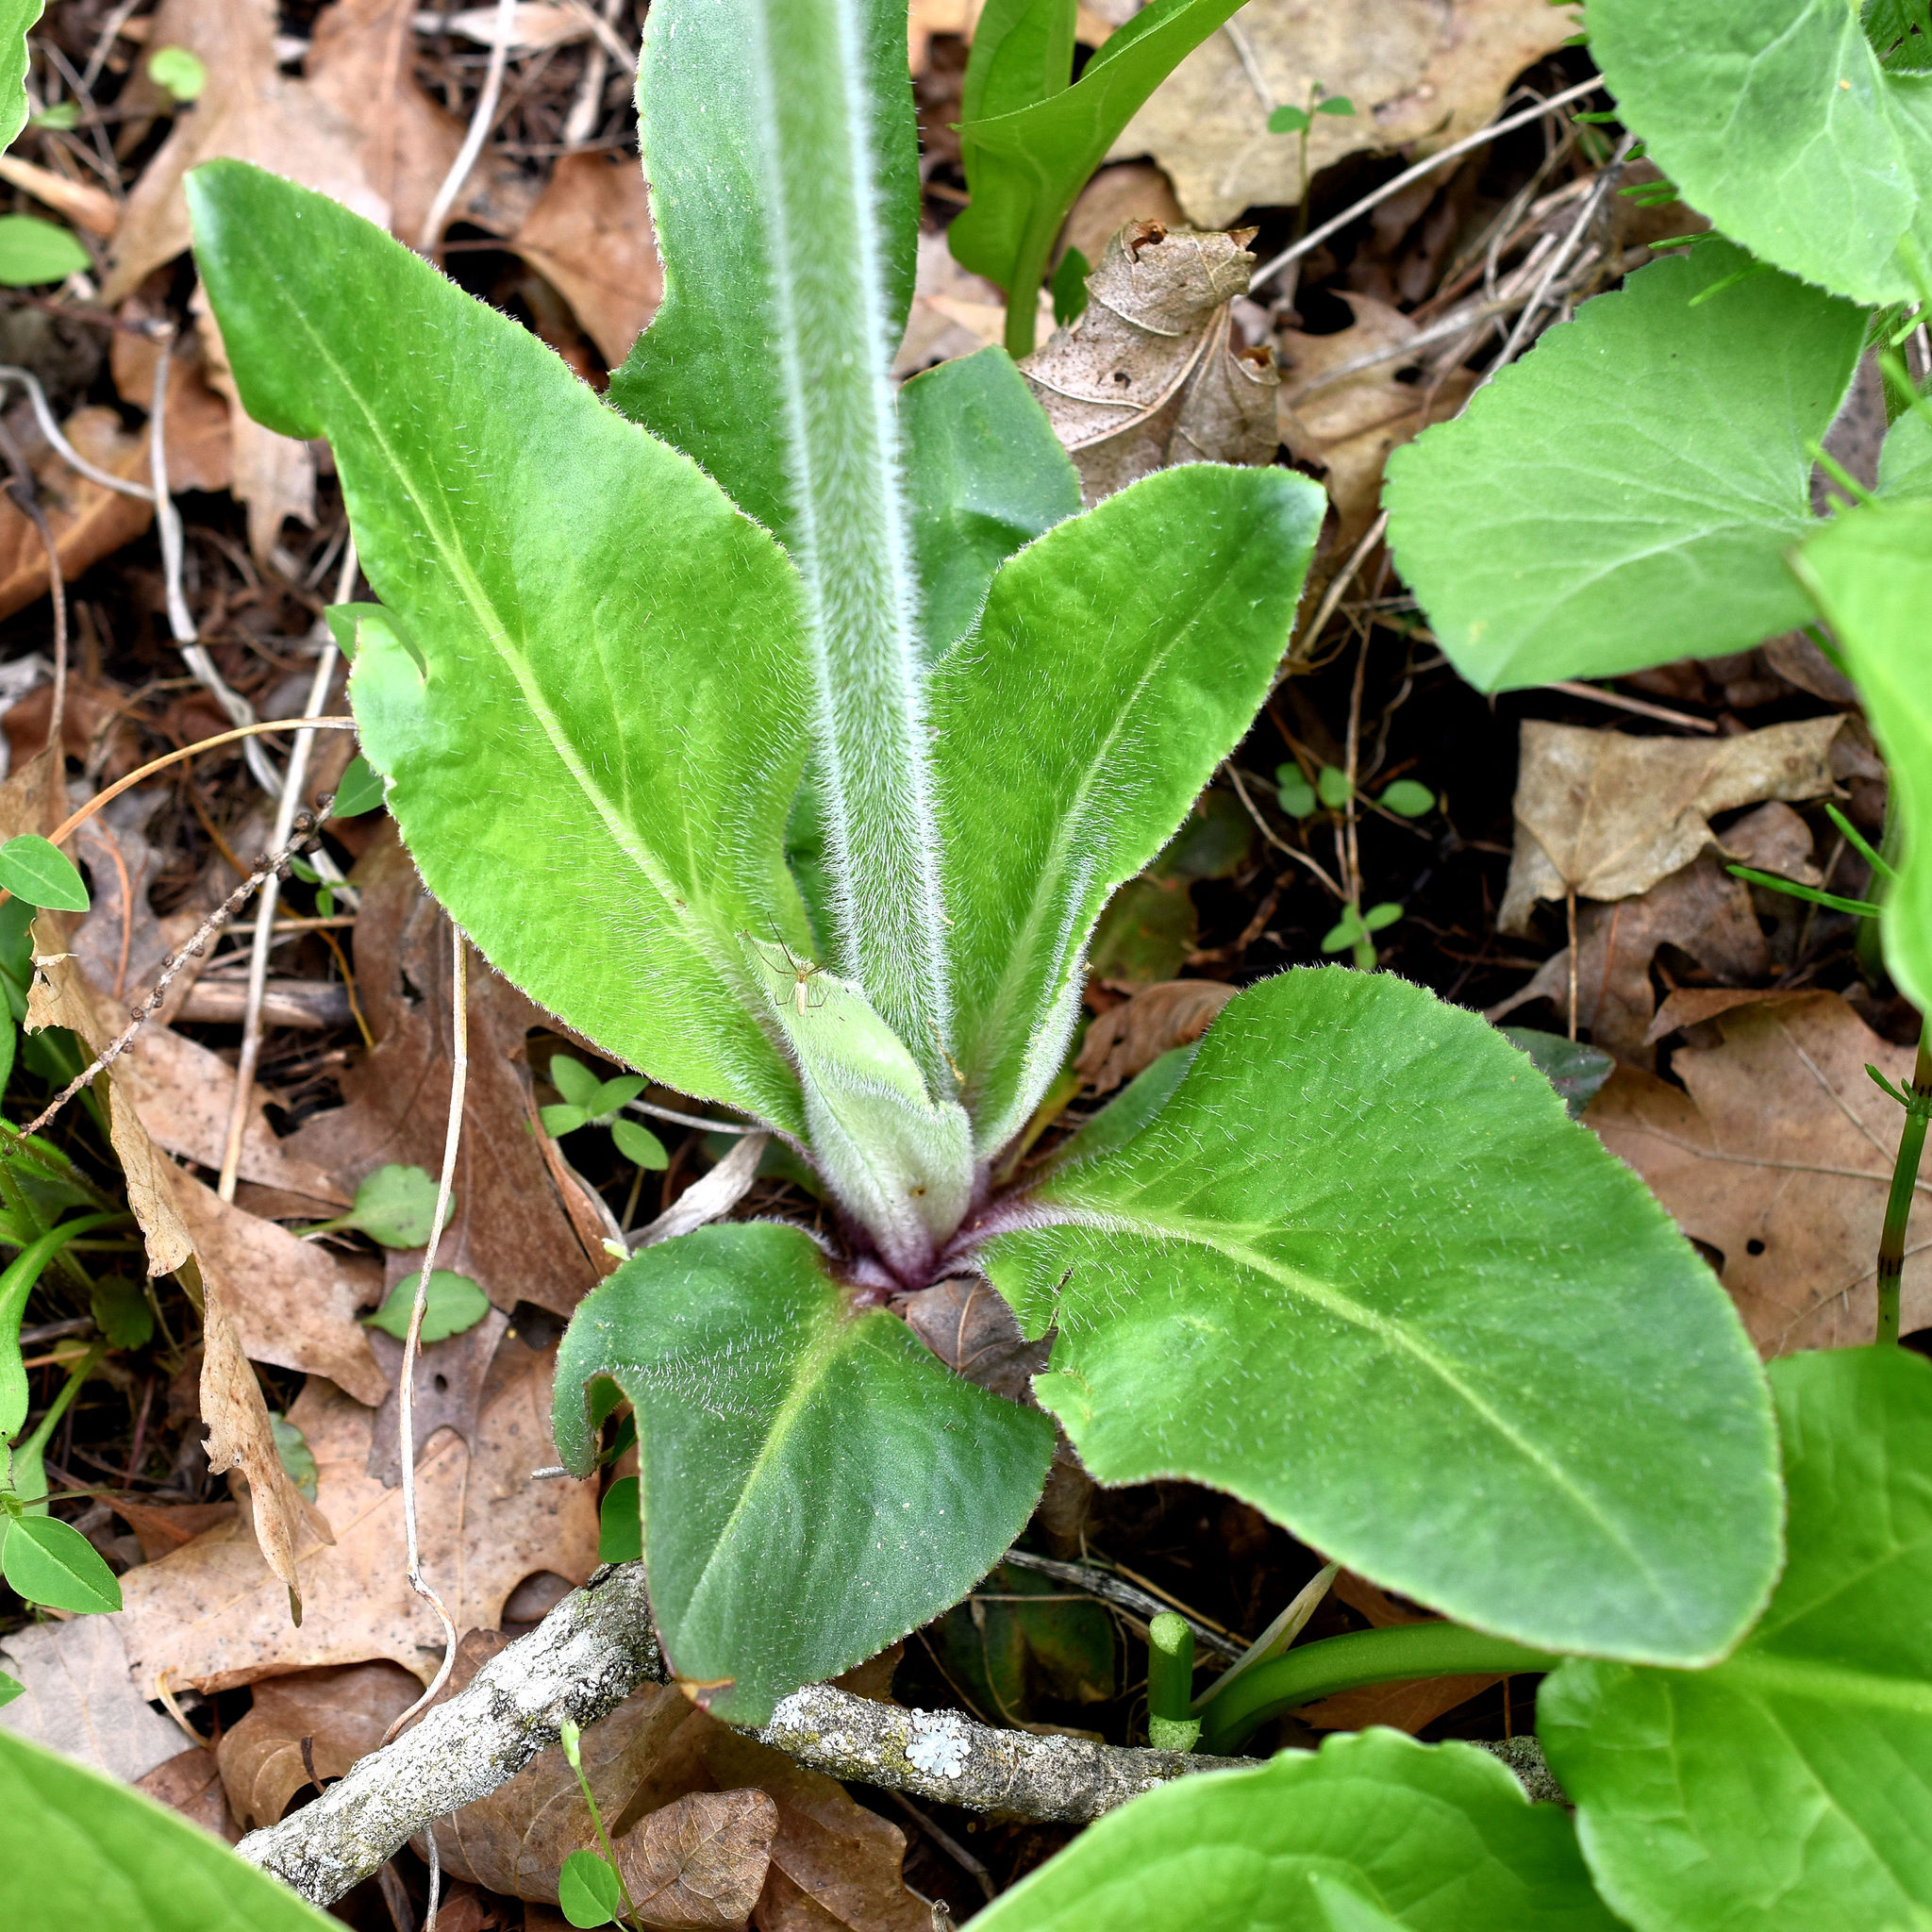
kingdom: Plantae
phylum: Tracheophyta
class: Magnoliopsida
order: Saxifragales
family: Saxifragaceae
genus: Micranthes
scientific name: Micranthes pensylvanica
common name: Marsh saxifrage
